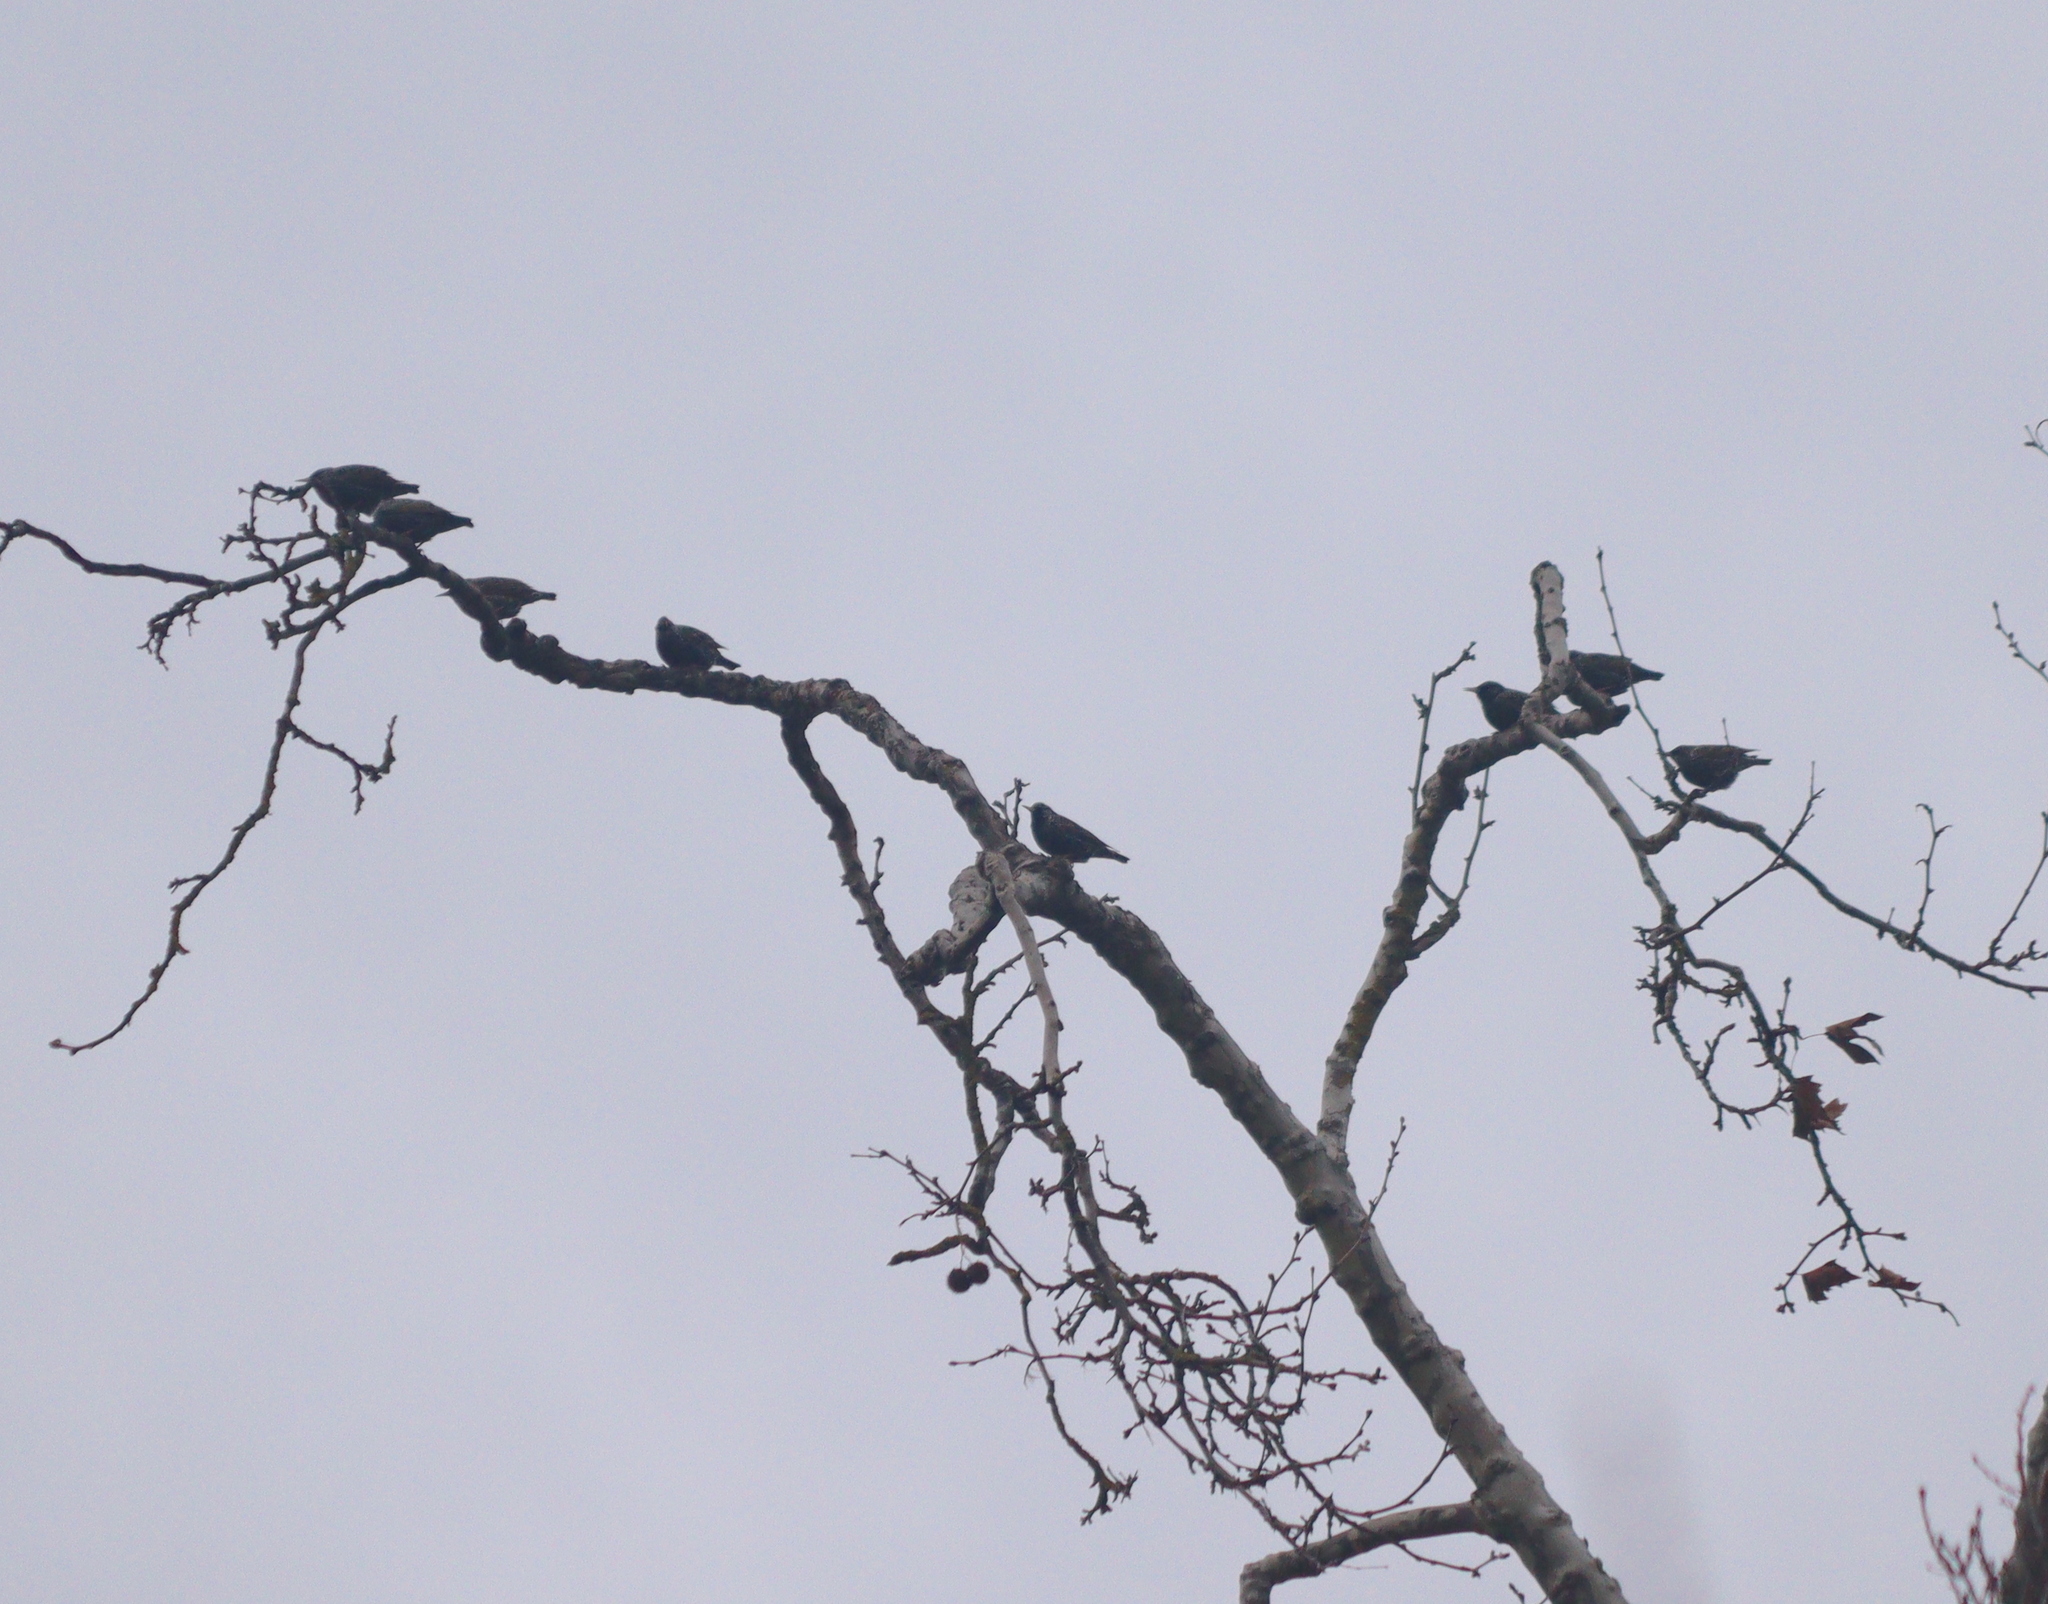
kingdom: Animalia
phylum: Chordata
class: Aves
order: Passeriformes
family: Sturnidae
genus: Sturnus
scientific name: Sturnus vulgaris
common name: Common starling
